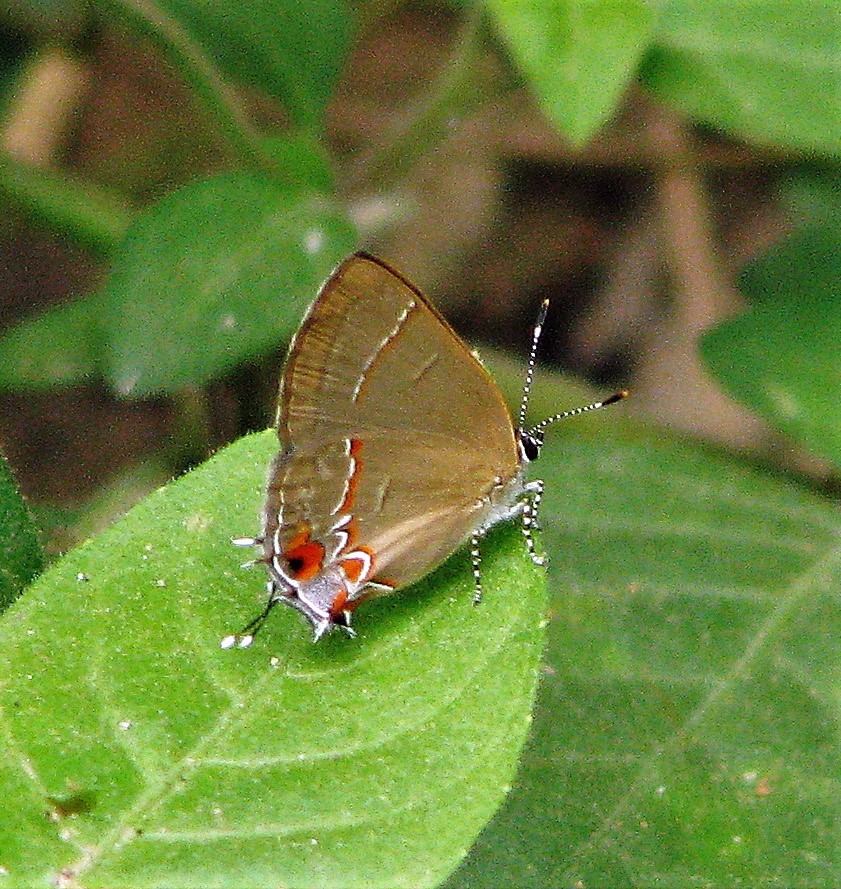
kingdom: Animalia
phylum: Arthropoda
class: Insecta
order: Lepidoptera
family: Lycaenidae
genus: Calycopis
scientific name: Calycopis caulonia
